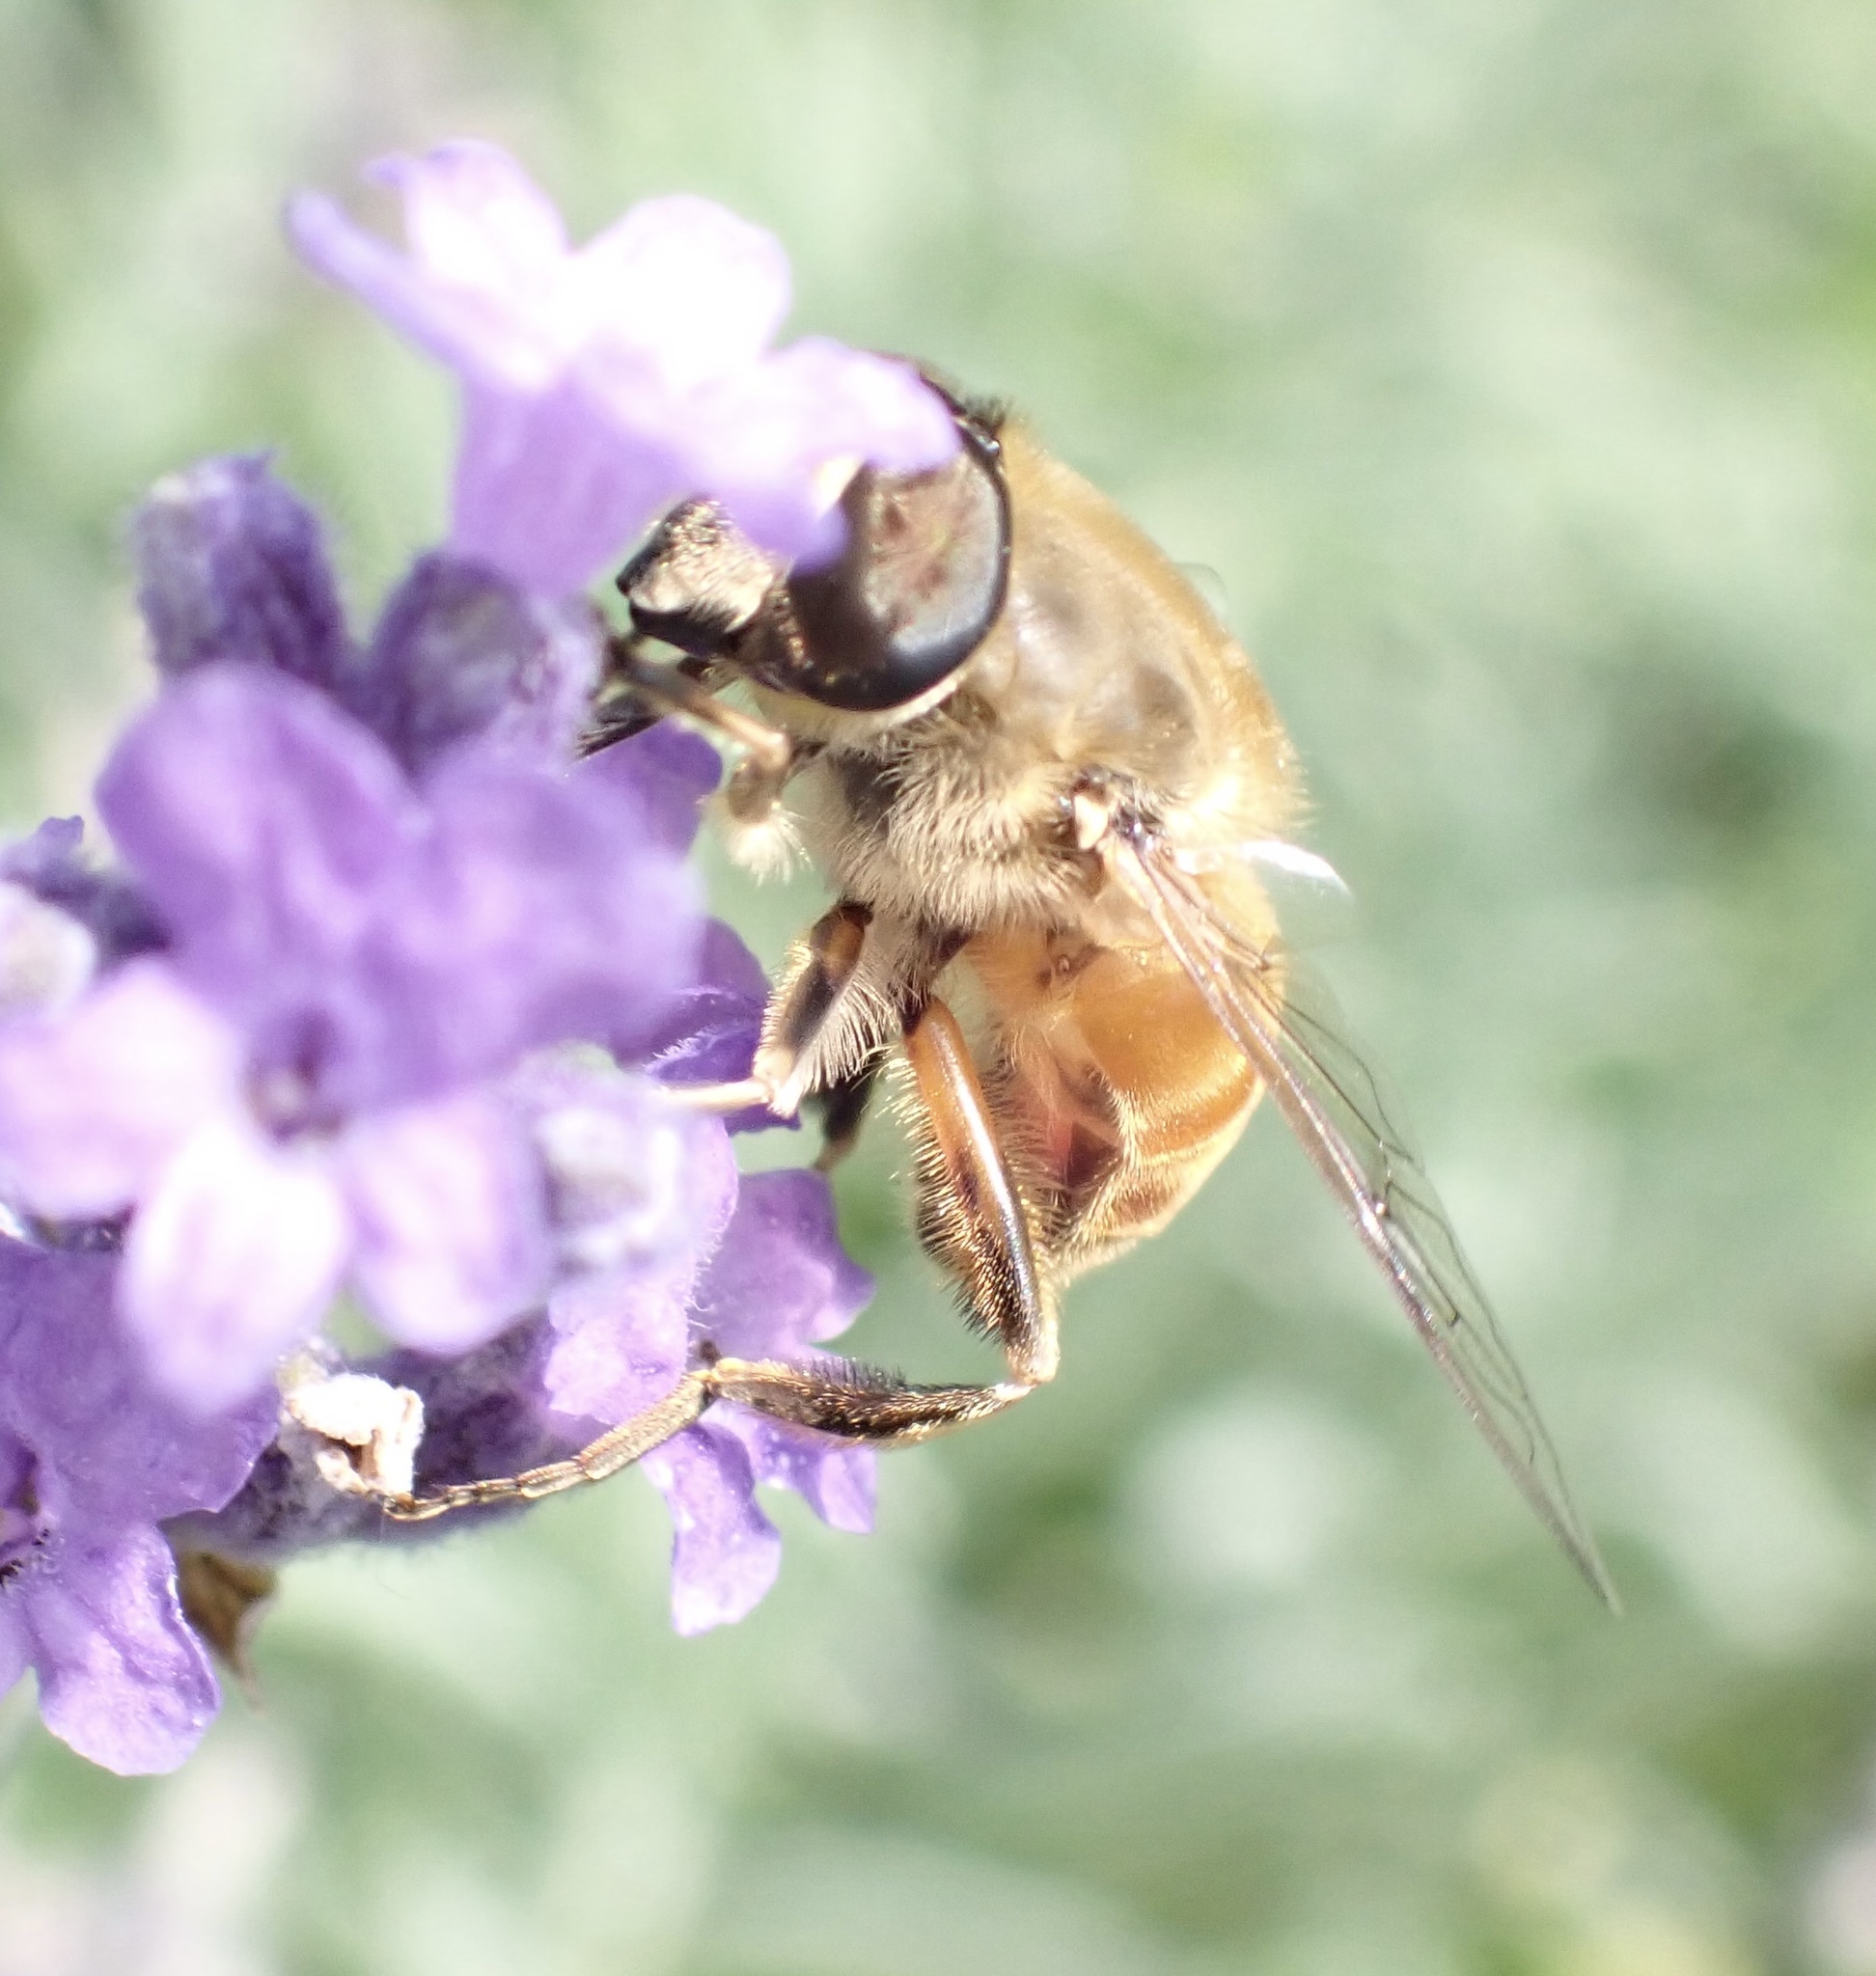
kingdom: Animalia
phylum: Arthropoda
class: Insecta
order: Diptera
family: Syrphidae
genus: Eristalis
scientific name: Eristalis tenax
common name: Drone fly
